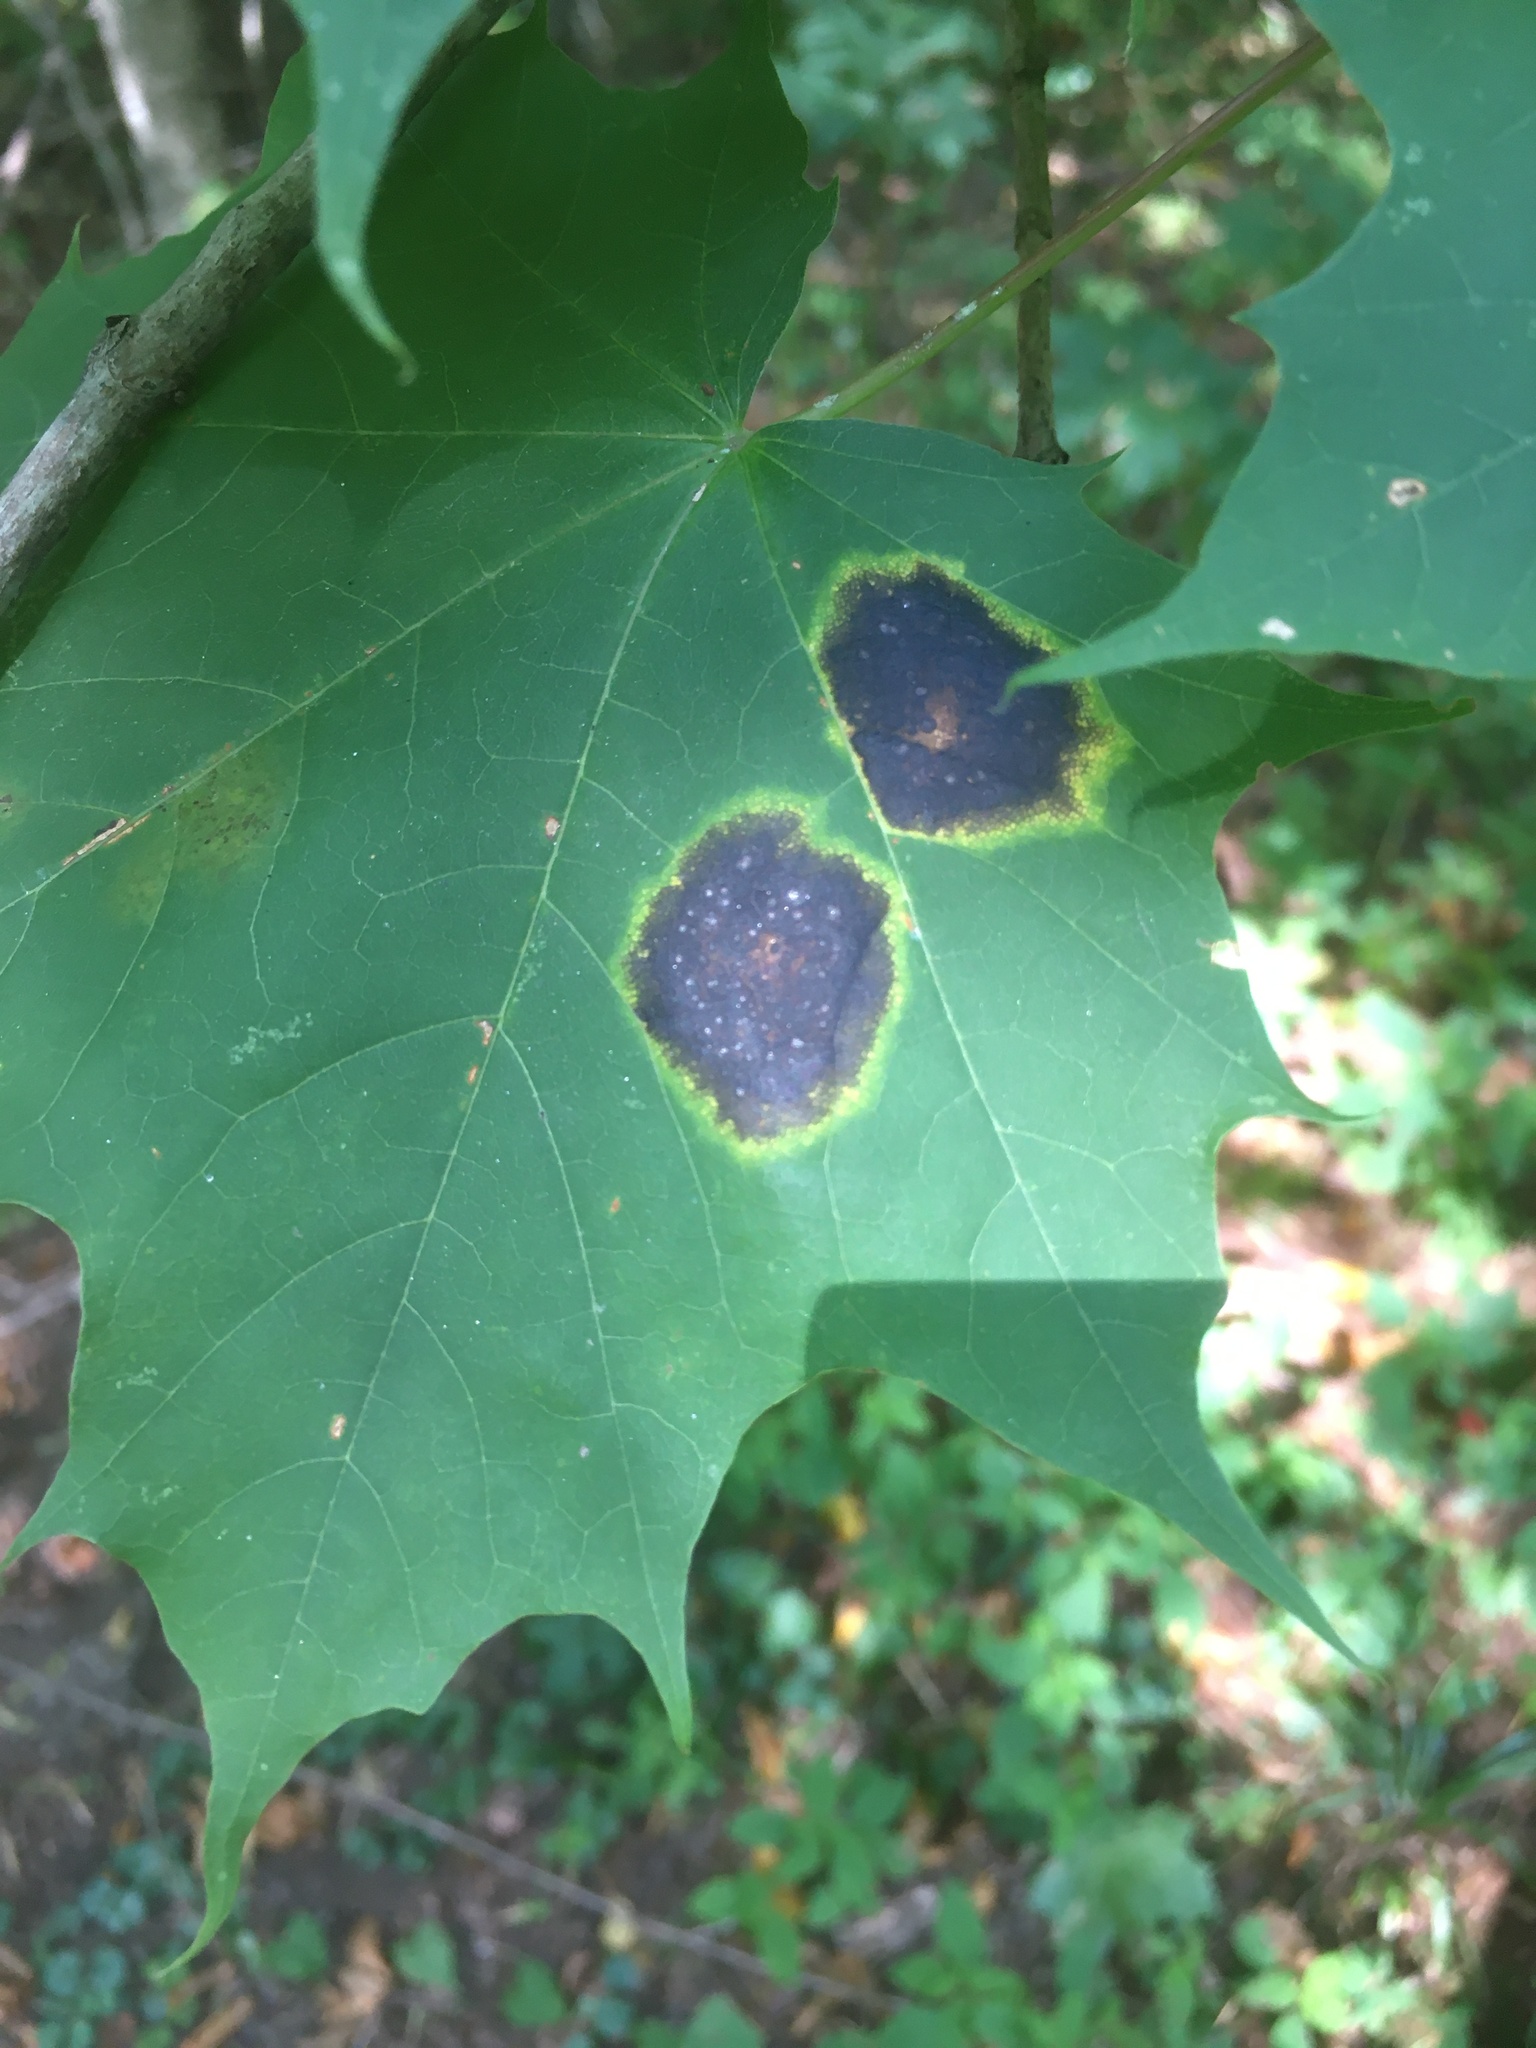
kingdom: Fungi
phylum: Ascomycota
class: Leotiomycetes
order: Rhytismatales
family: Rhytismataceae
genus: Rhytisma
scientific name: Rhytisma acerinum
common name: European tar spot
